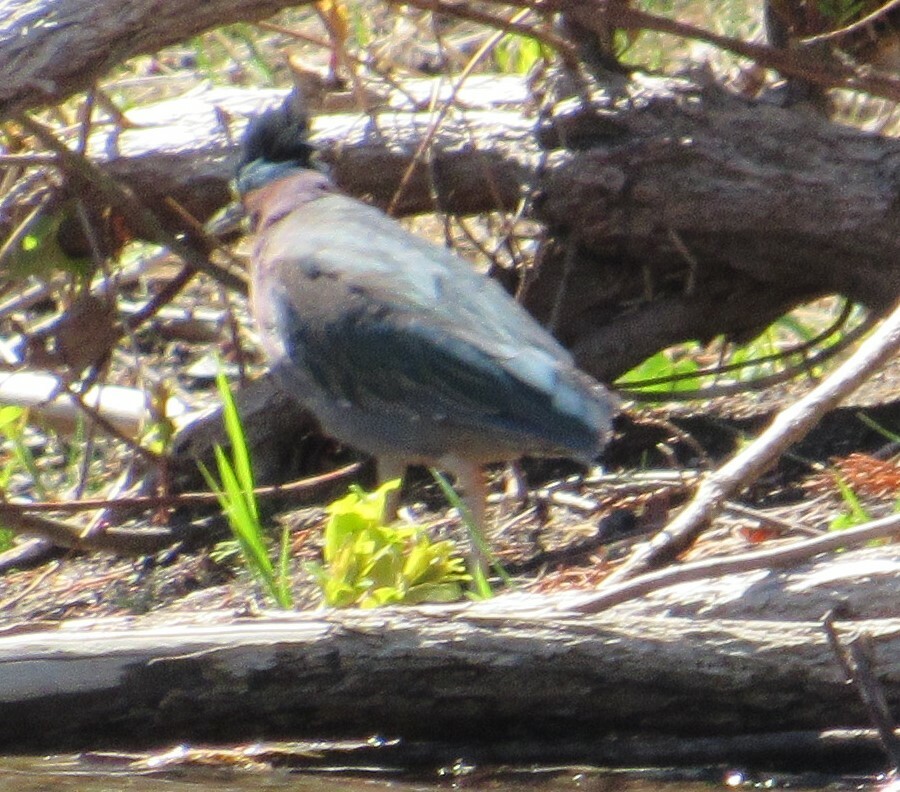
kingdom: Animalia
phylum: Chordata
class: Aves
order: Pelecaniformes
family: Ardeidae
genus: Butorides
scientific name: Butorides virescens
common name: Green heron
